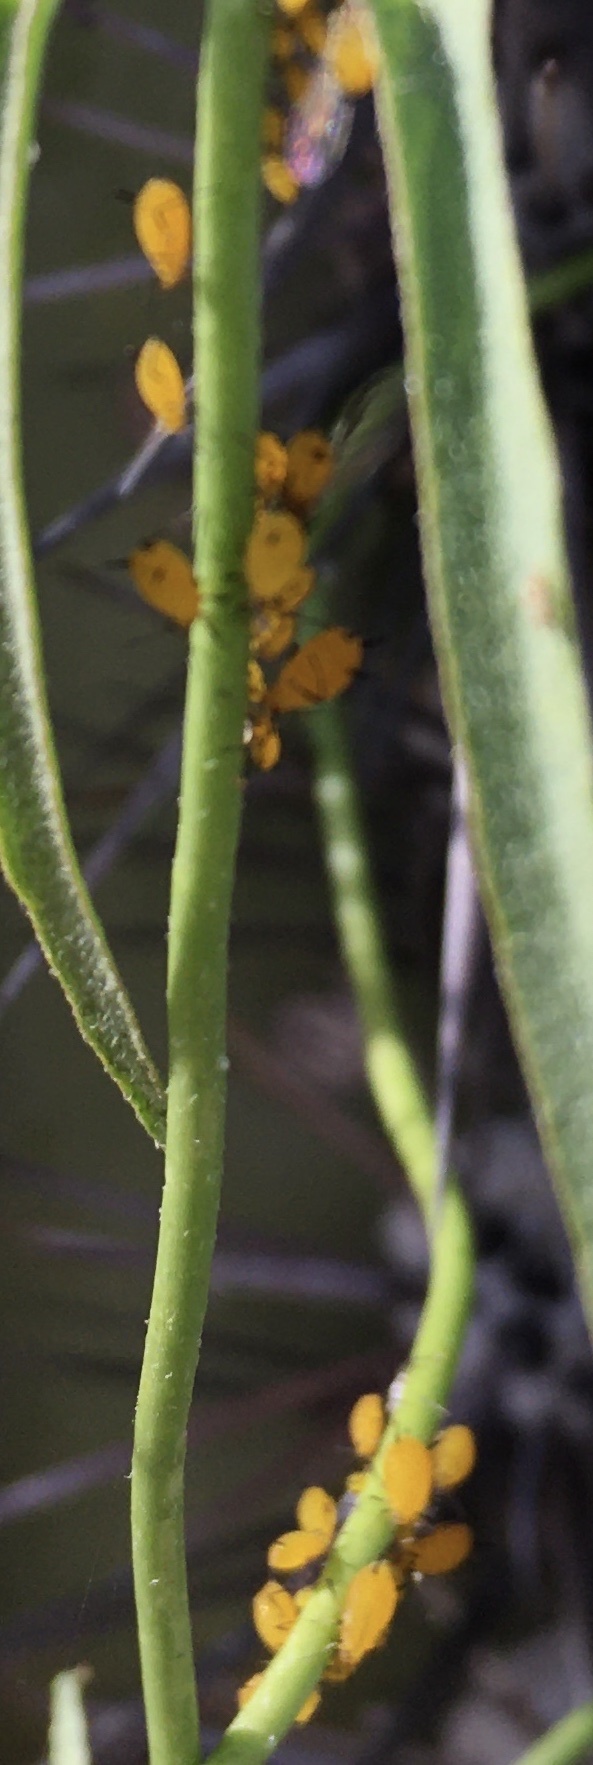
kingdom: Animalia
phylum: Arthropoda
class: Insecta
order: Hemiptera
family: Aphididae
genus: Aphis
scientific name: Aphis nerii
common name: Oleander aphid
